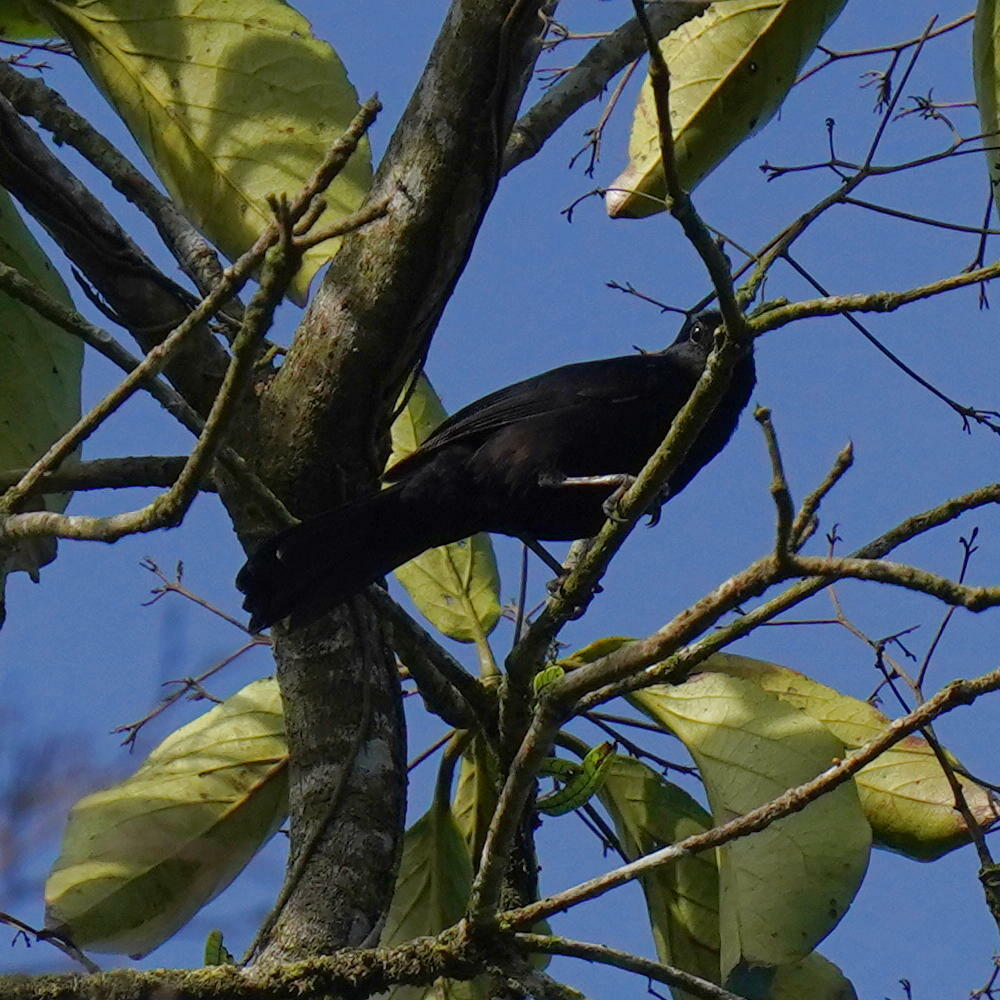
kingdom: Animalia
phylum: Chordata
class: Aves
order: Passeriformes
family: Thraupidae
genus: Tachyphonus
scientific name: Tachyphonus rufus
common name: White-lined tanager
